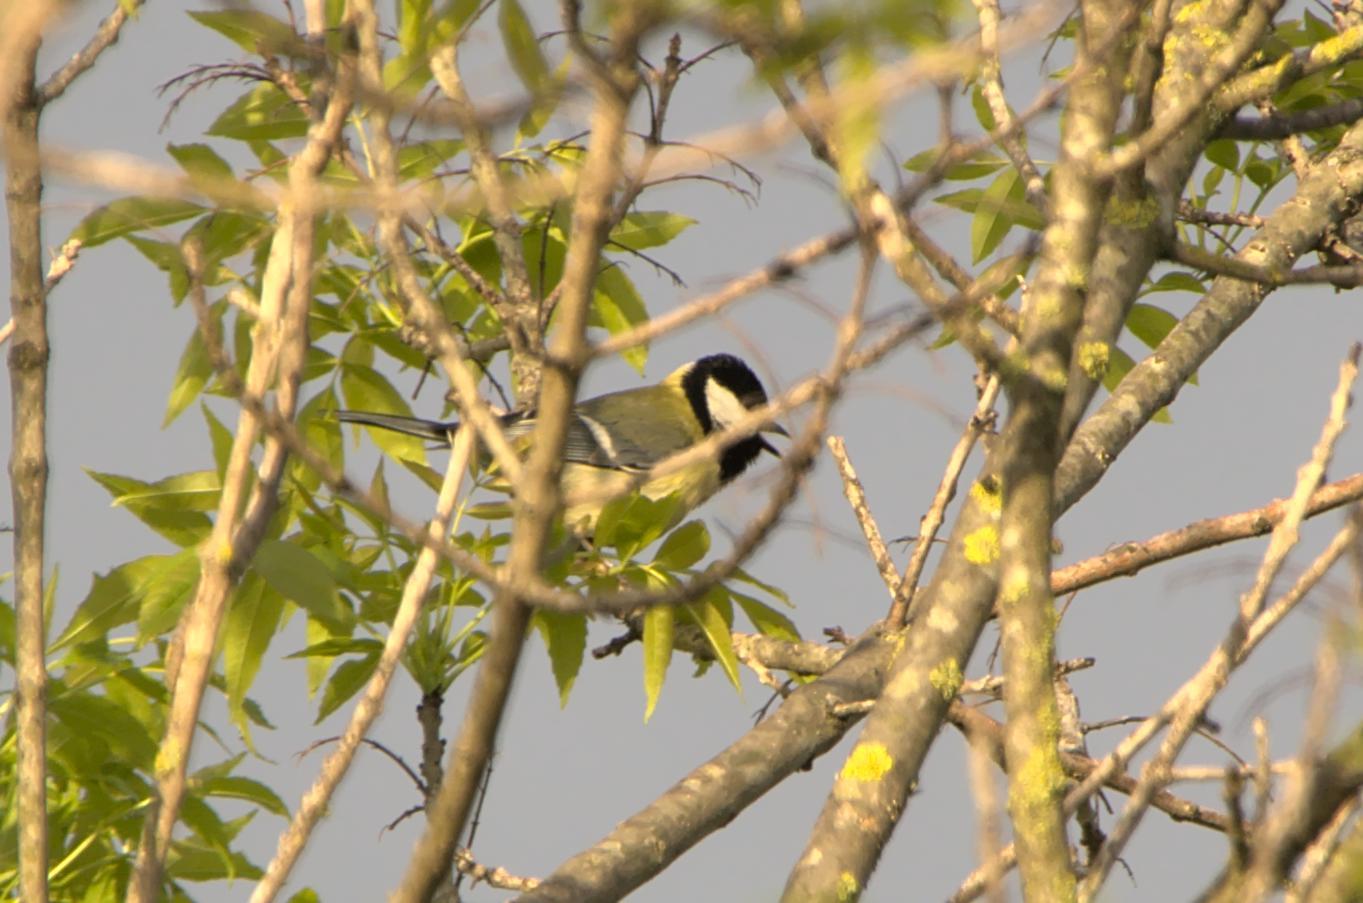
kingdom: Animalia
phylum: Chordata
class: Aves
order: Passeriformes
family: Paridae
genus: Parus
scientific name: Parus major
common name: Great tit
